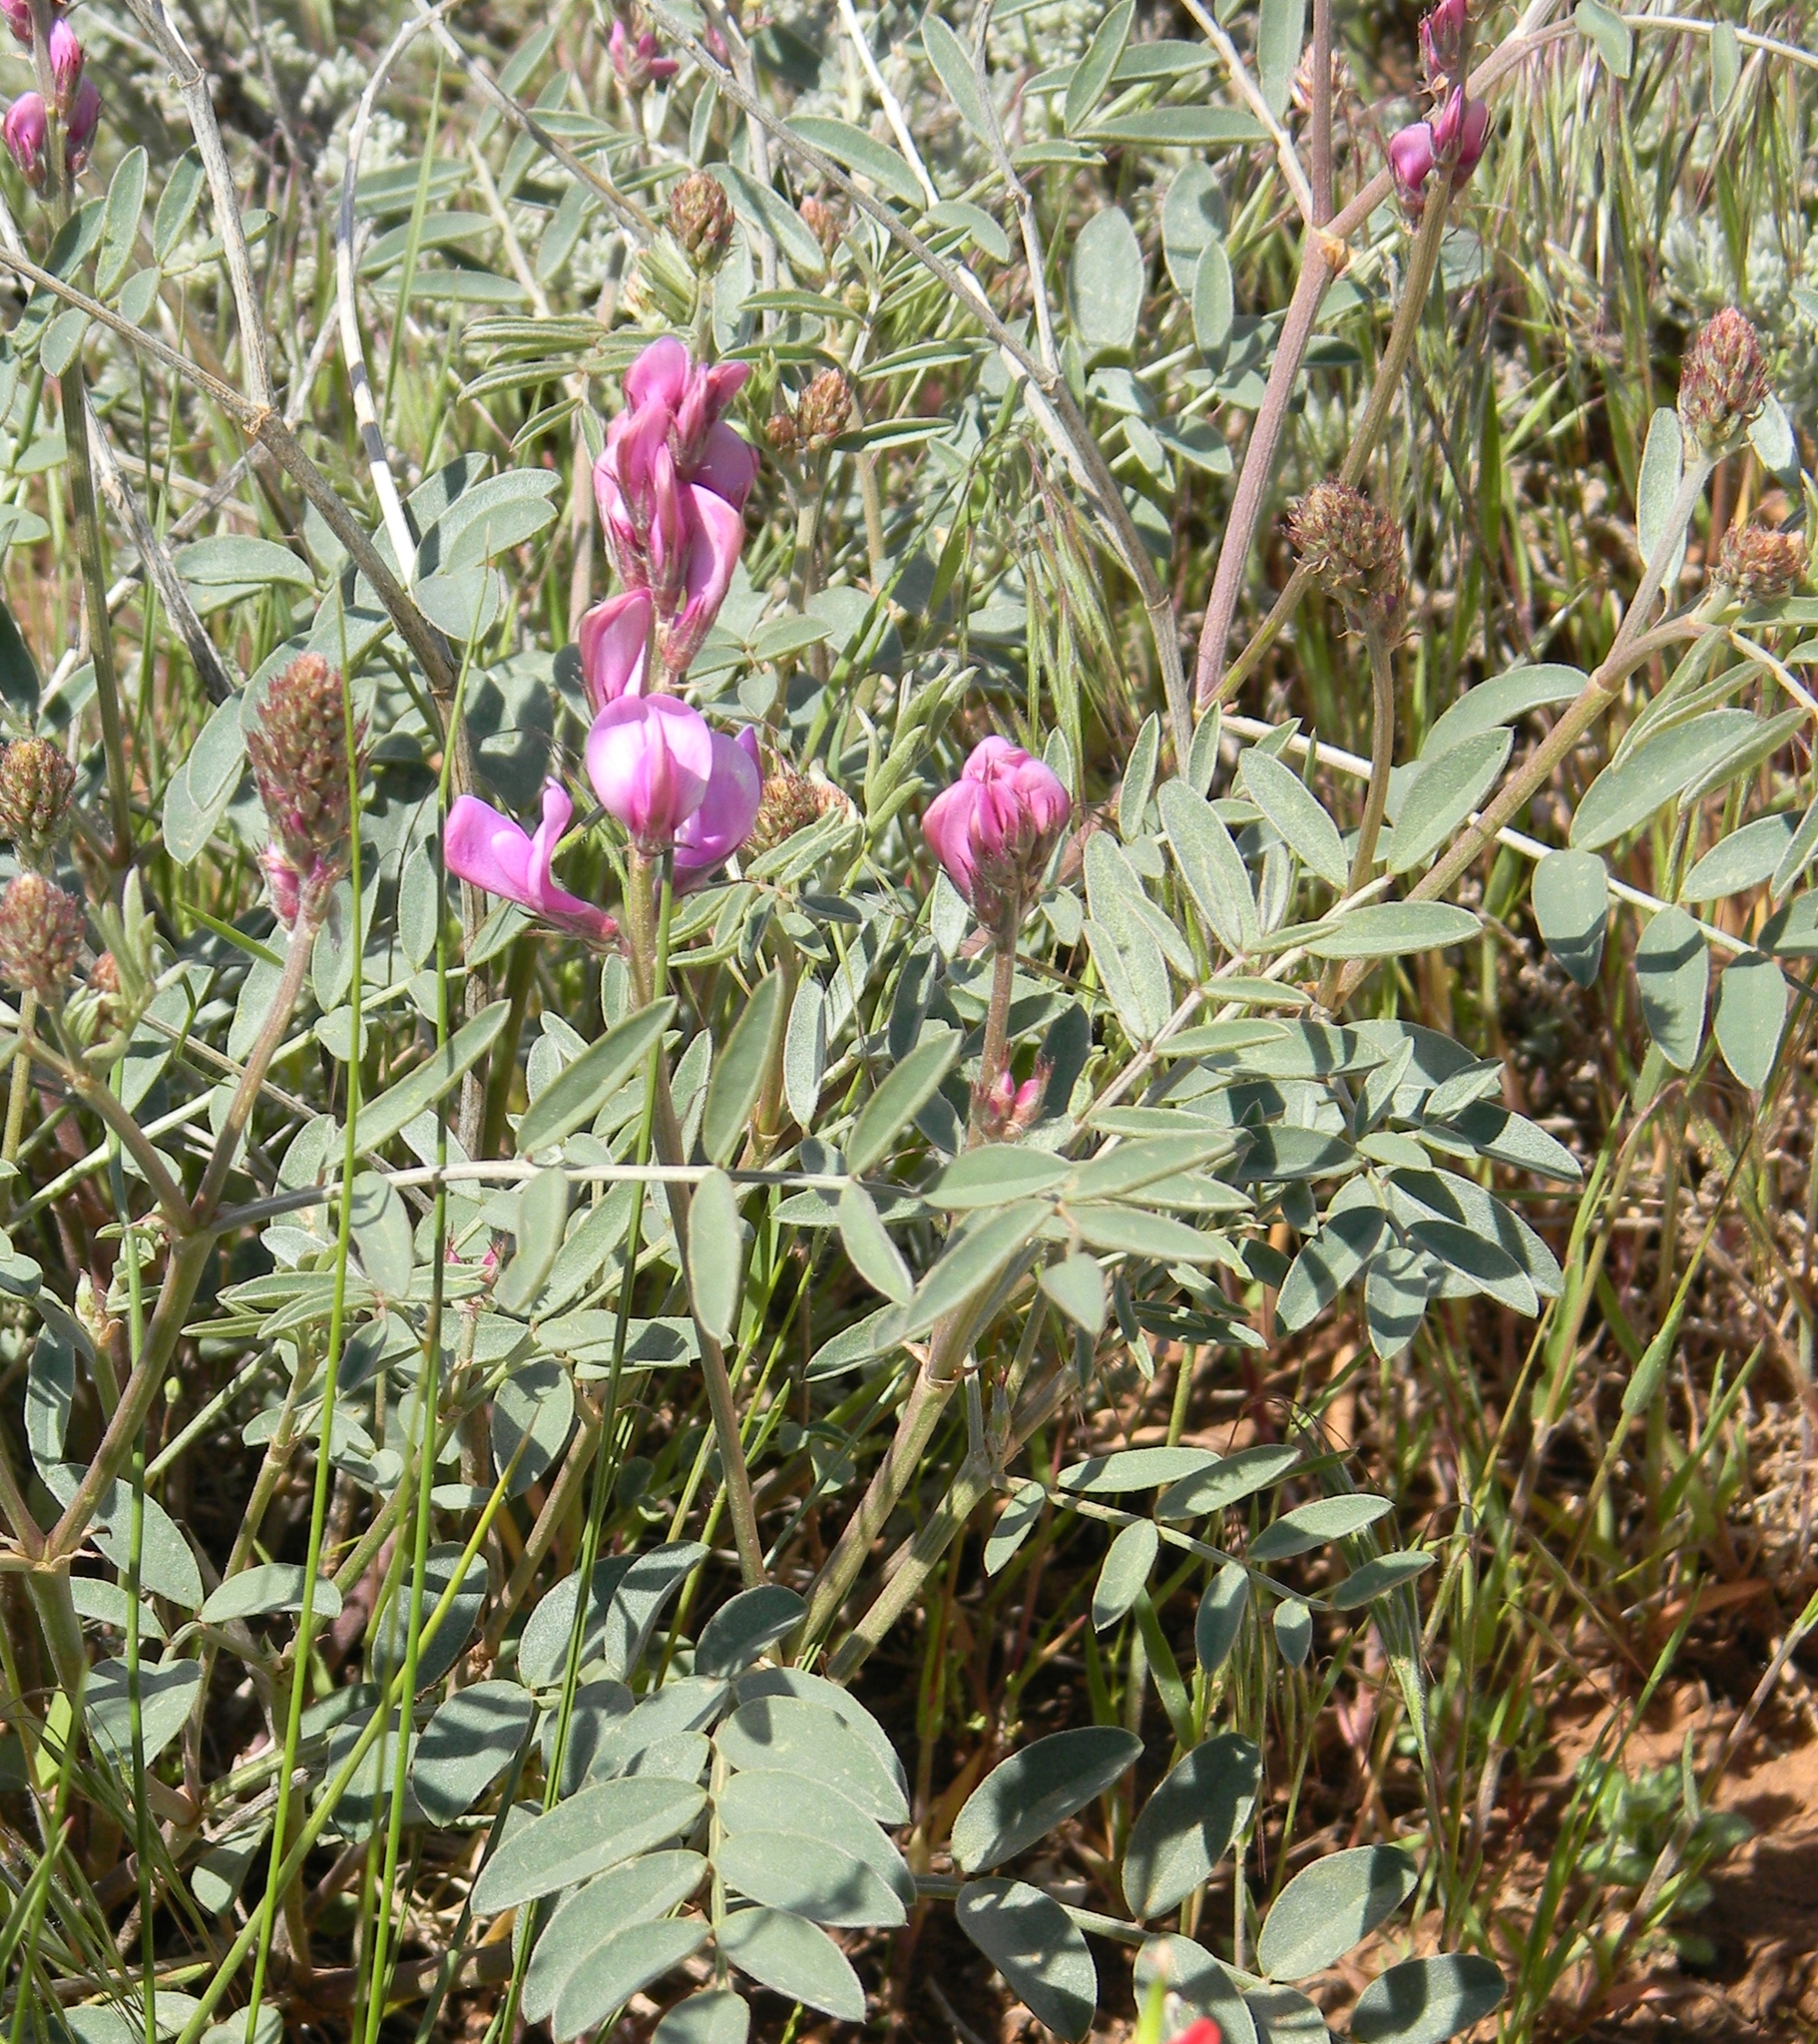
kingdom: Plantae
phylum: Tracheophyta
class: Magnoliopsida
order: Fabales
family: Fabaceae
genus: Hedysarum
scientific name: Hedysarum boreale
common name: Northern sweet-vetch
